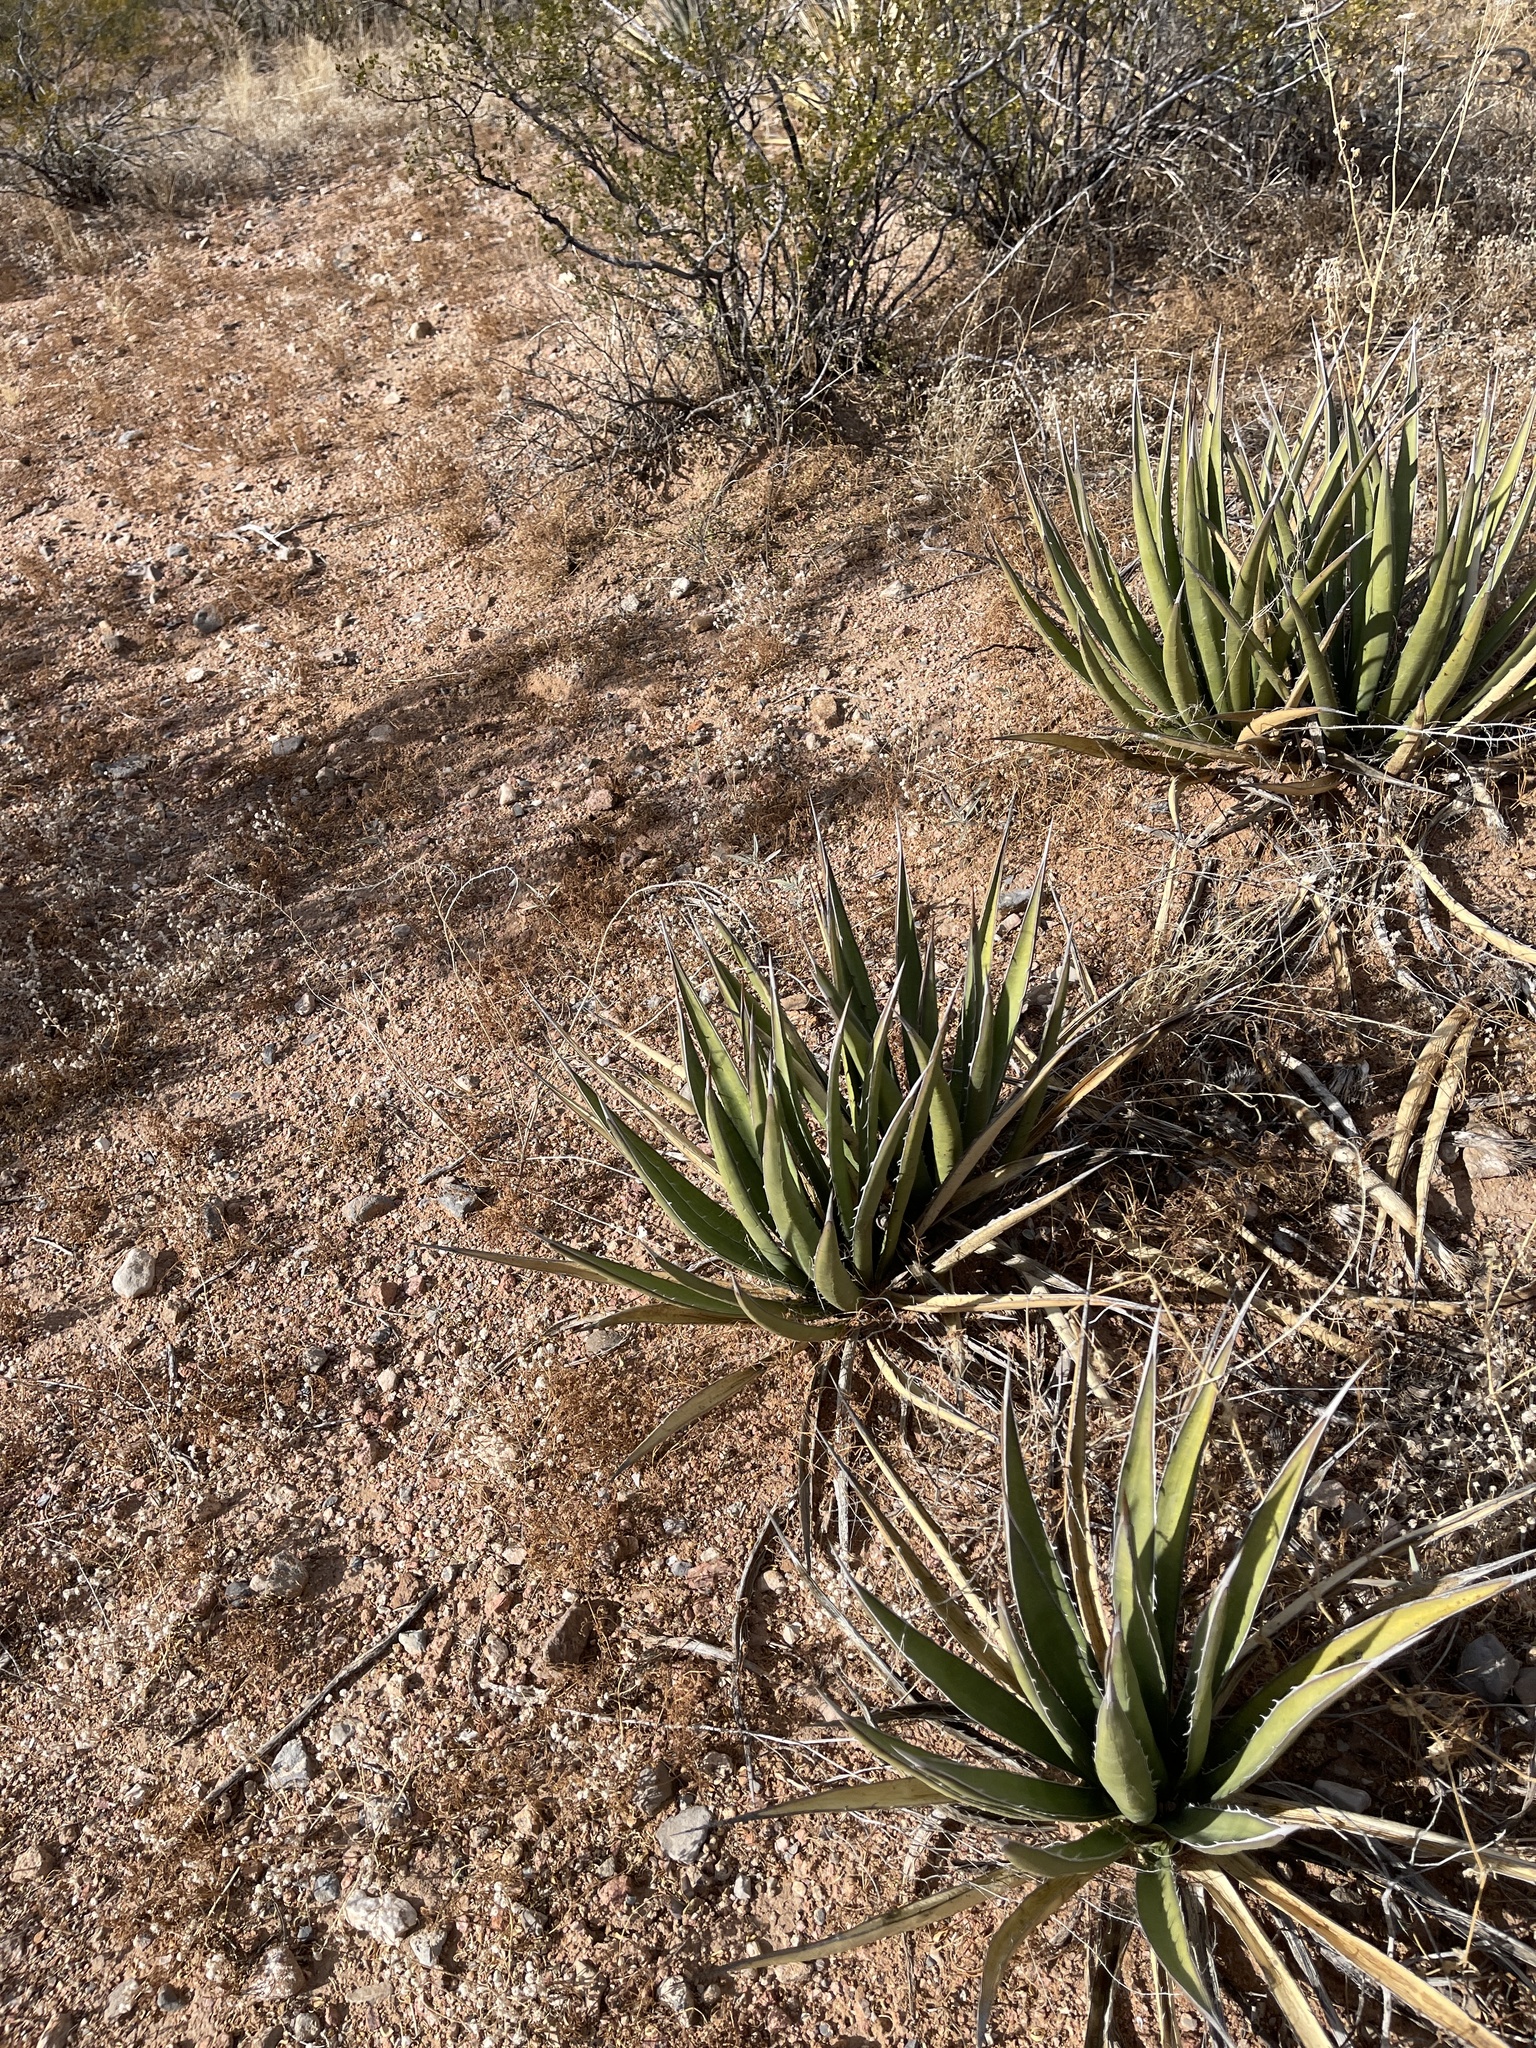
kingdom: Plantae
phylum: Tracheophyta
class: Liliopsida
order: Asparagales
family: Asparagaceae
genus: Agave
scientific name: Agave lechuguilla
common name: Lecheguilla agave
